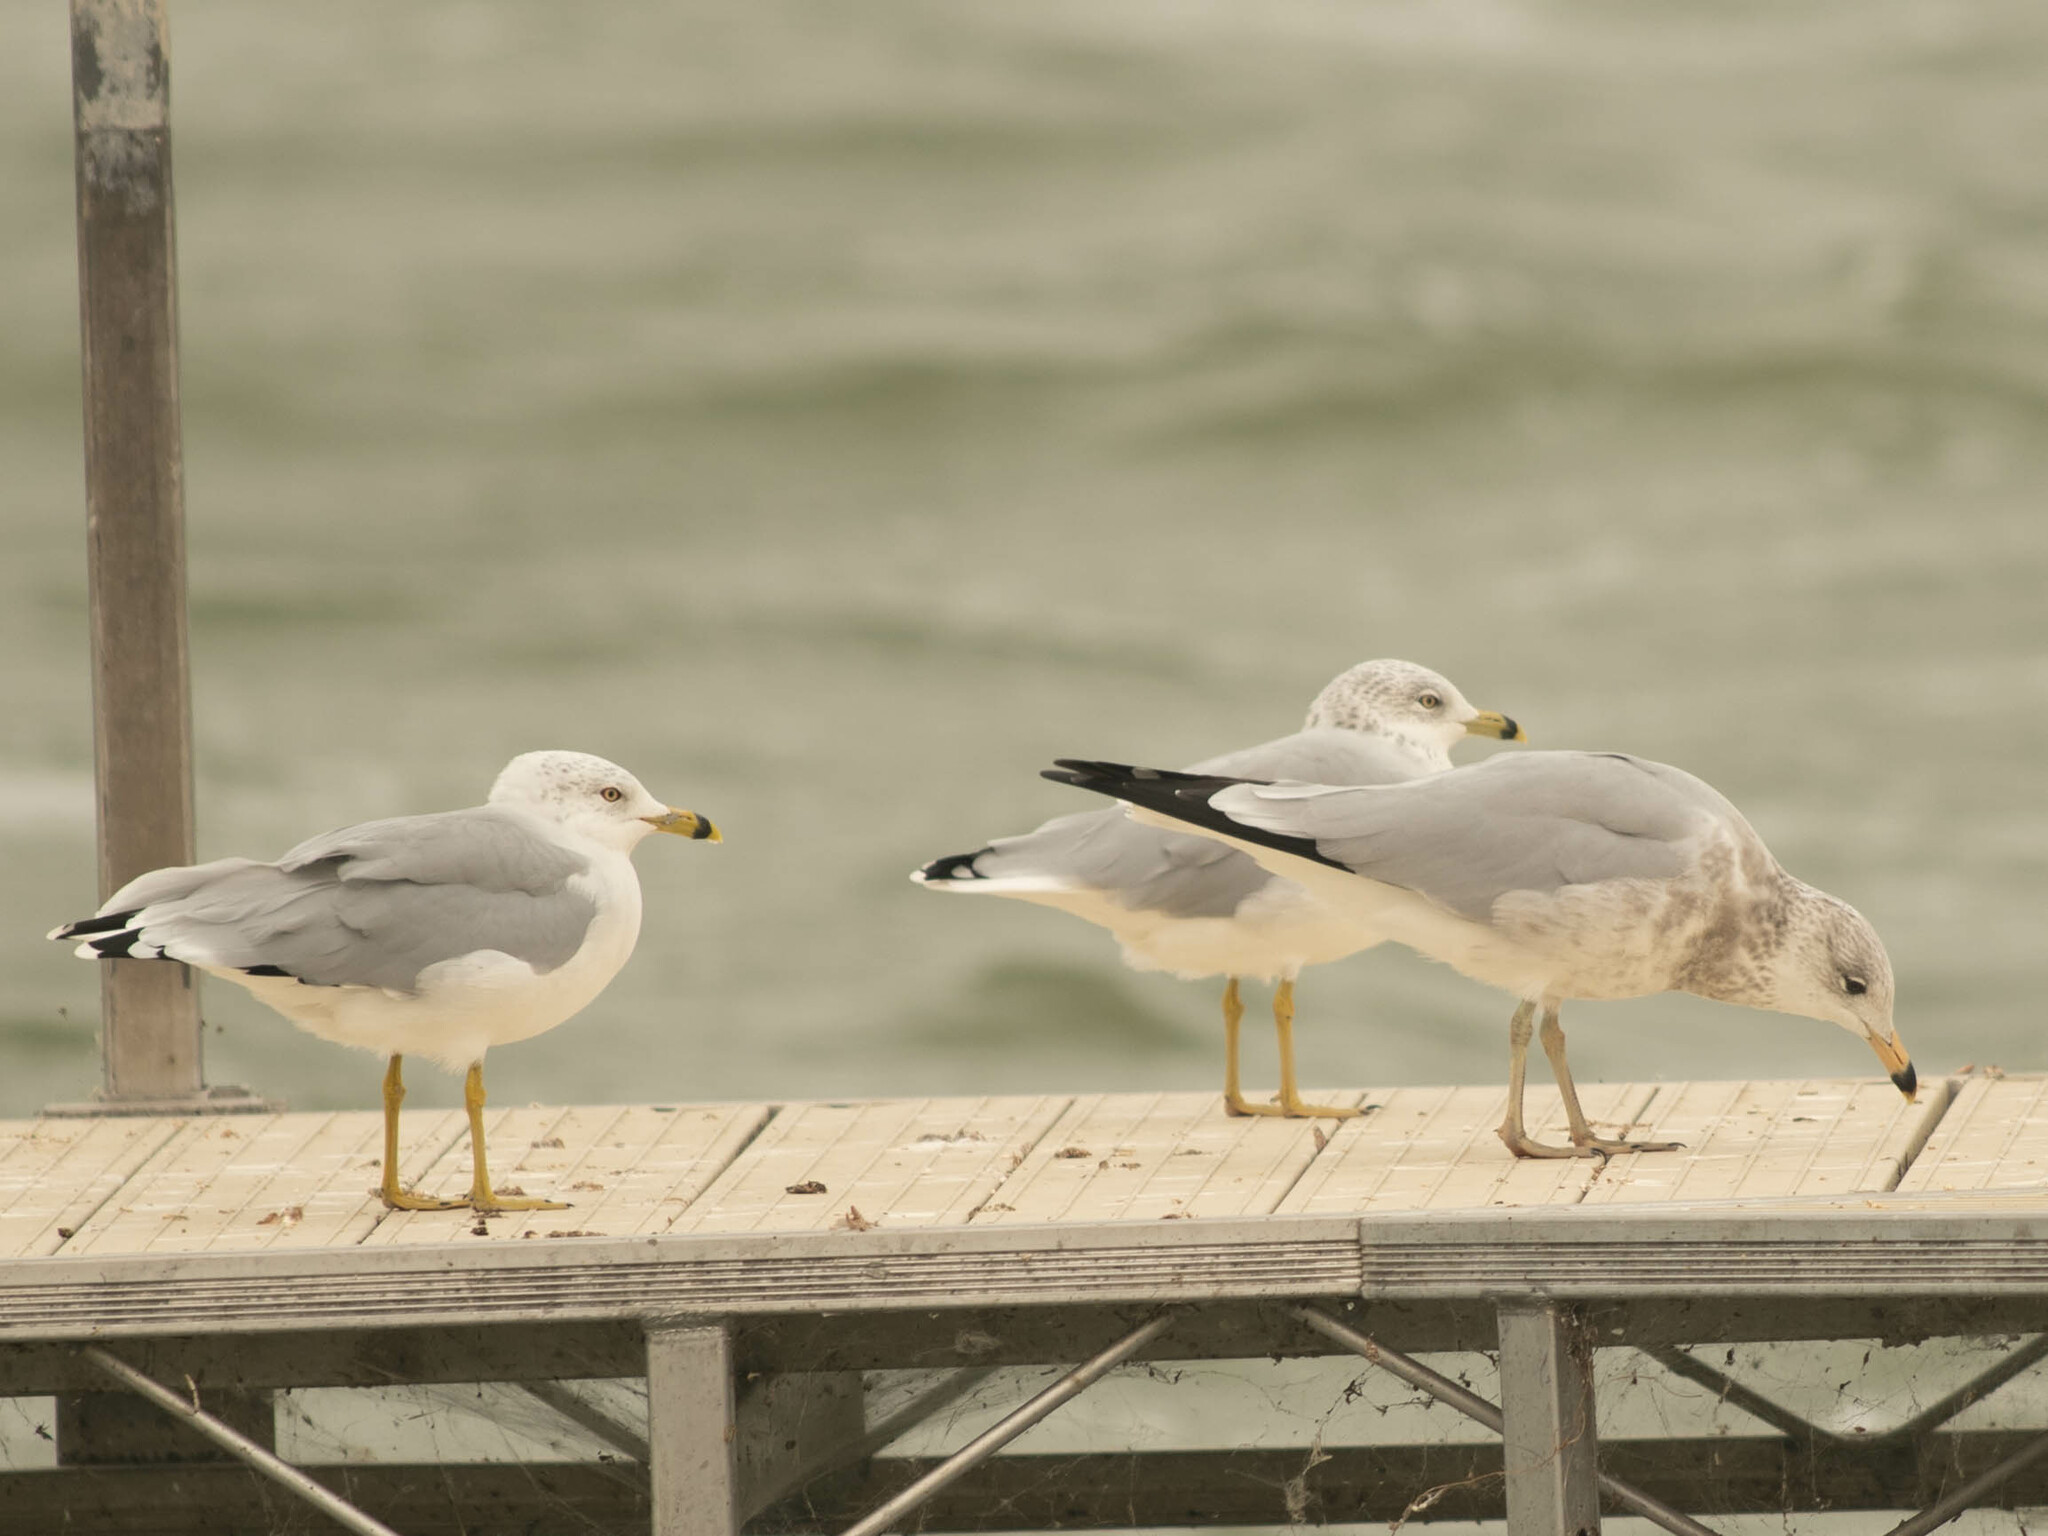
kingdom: Animalia
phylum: Chordata
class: Aves
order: Charadriiformes
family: Laridae
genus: Larus
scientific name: Larus delawarensis
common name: Ring-billed gull
